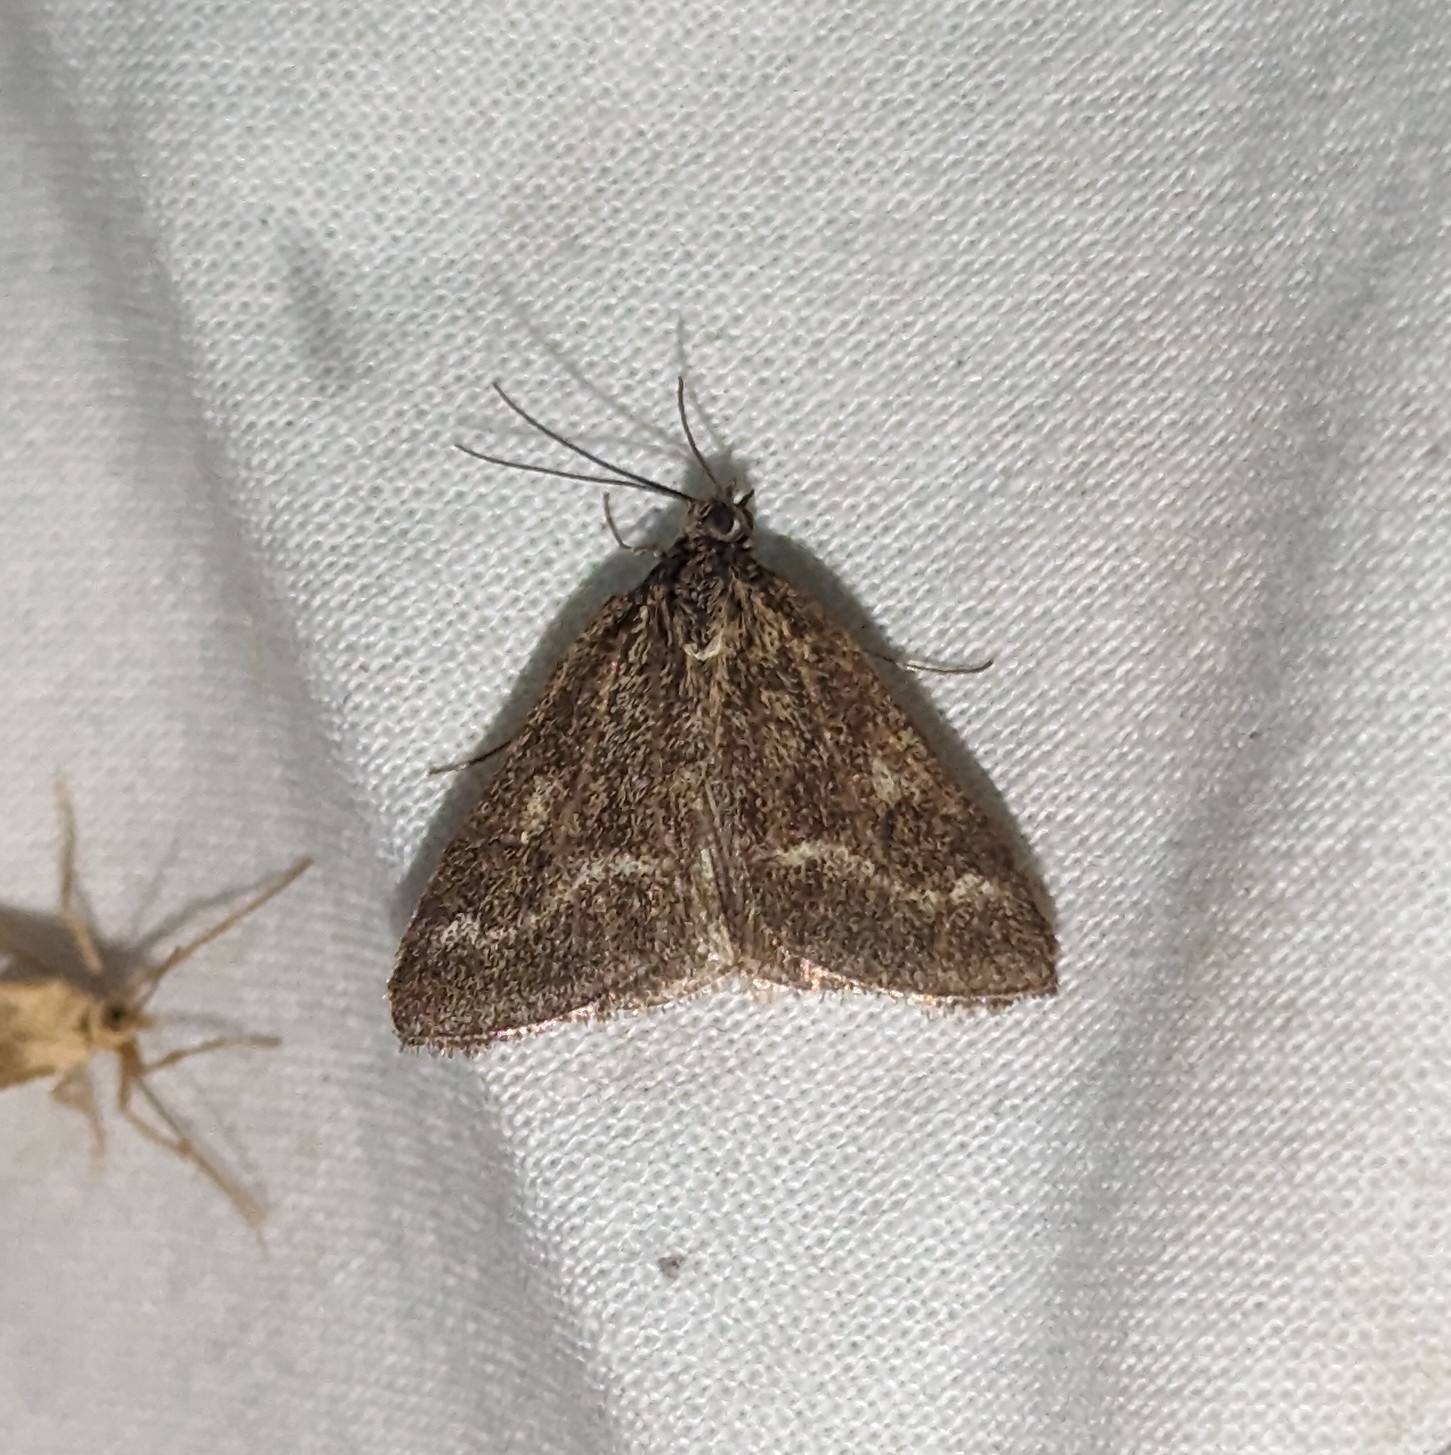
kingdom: Animalia
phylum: Arthropoda
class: Insecta
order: Lepidoptera
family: Crambidae
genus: Pyrausta
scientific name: Pyrausta unifascialis
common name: One-banded pyrausta
